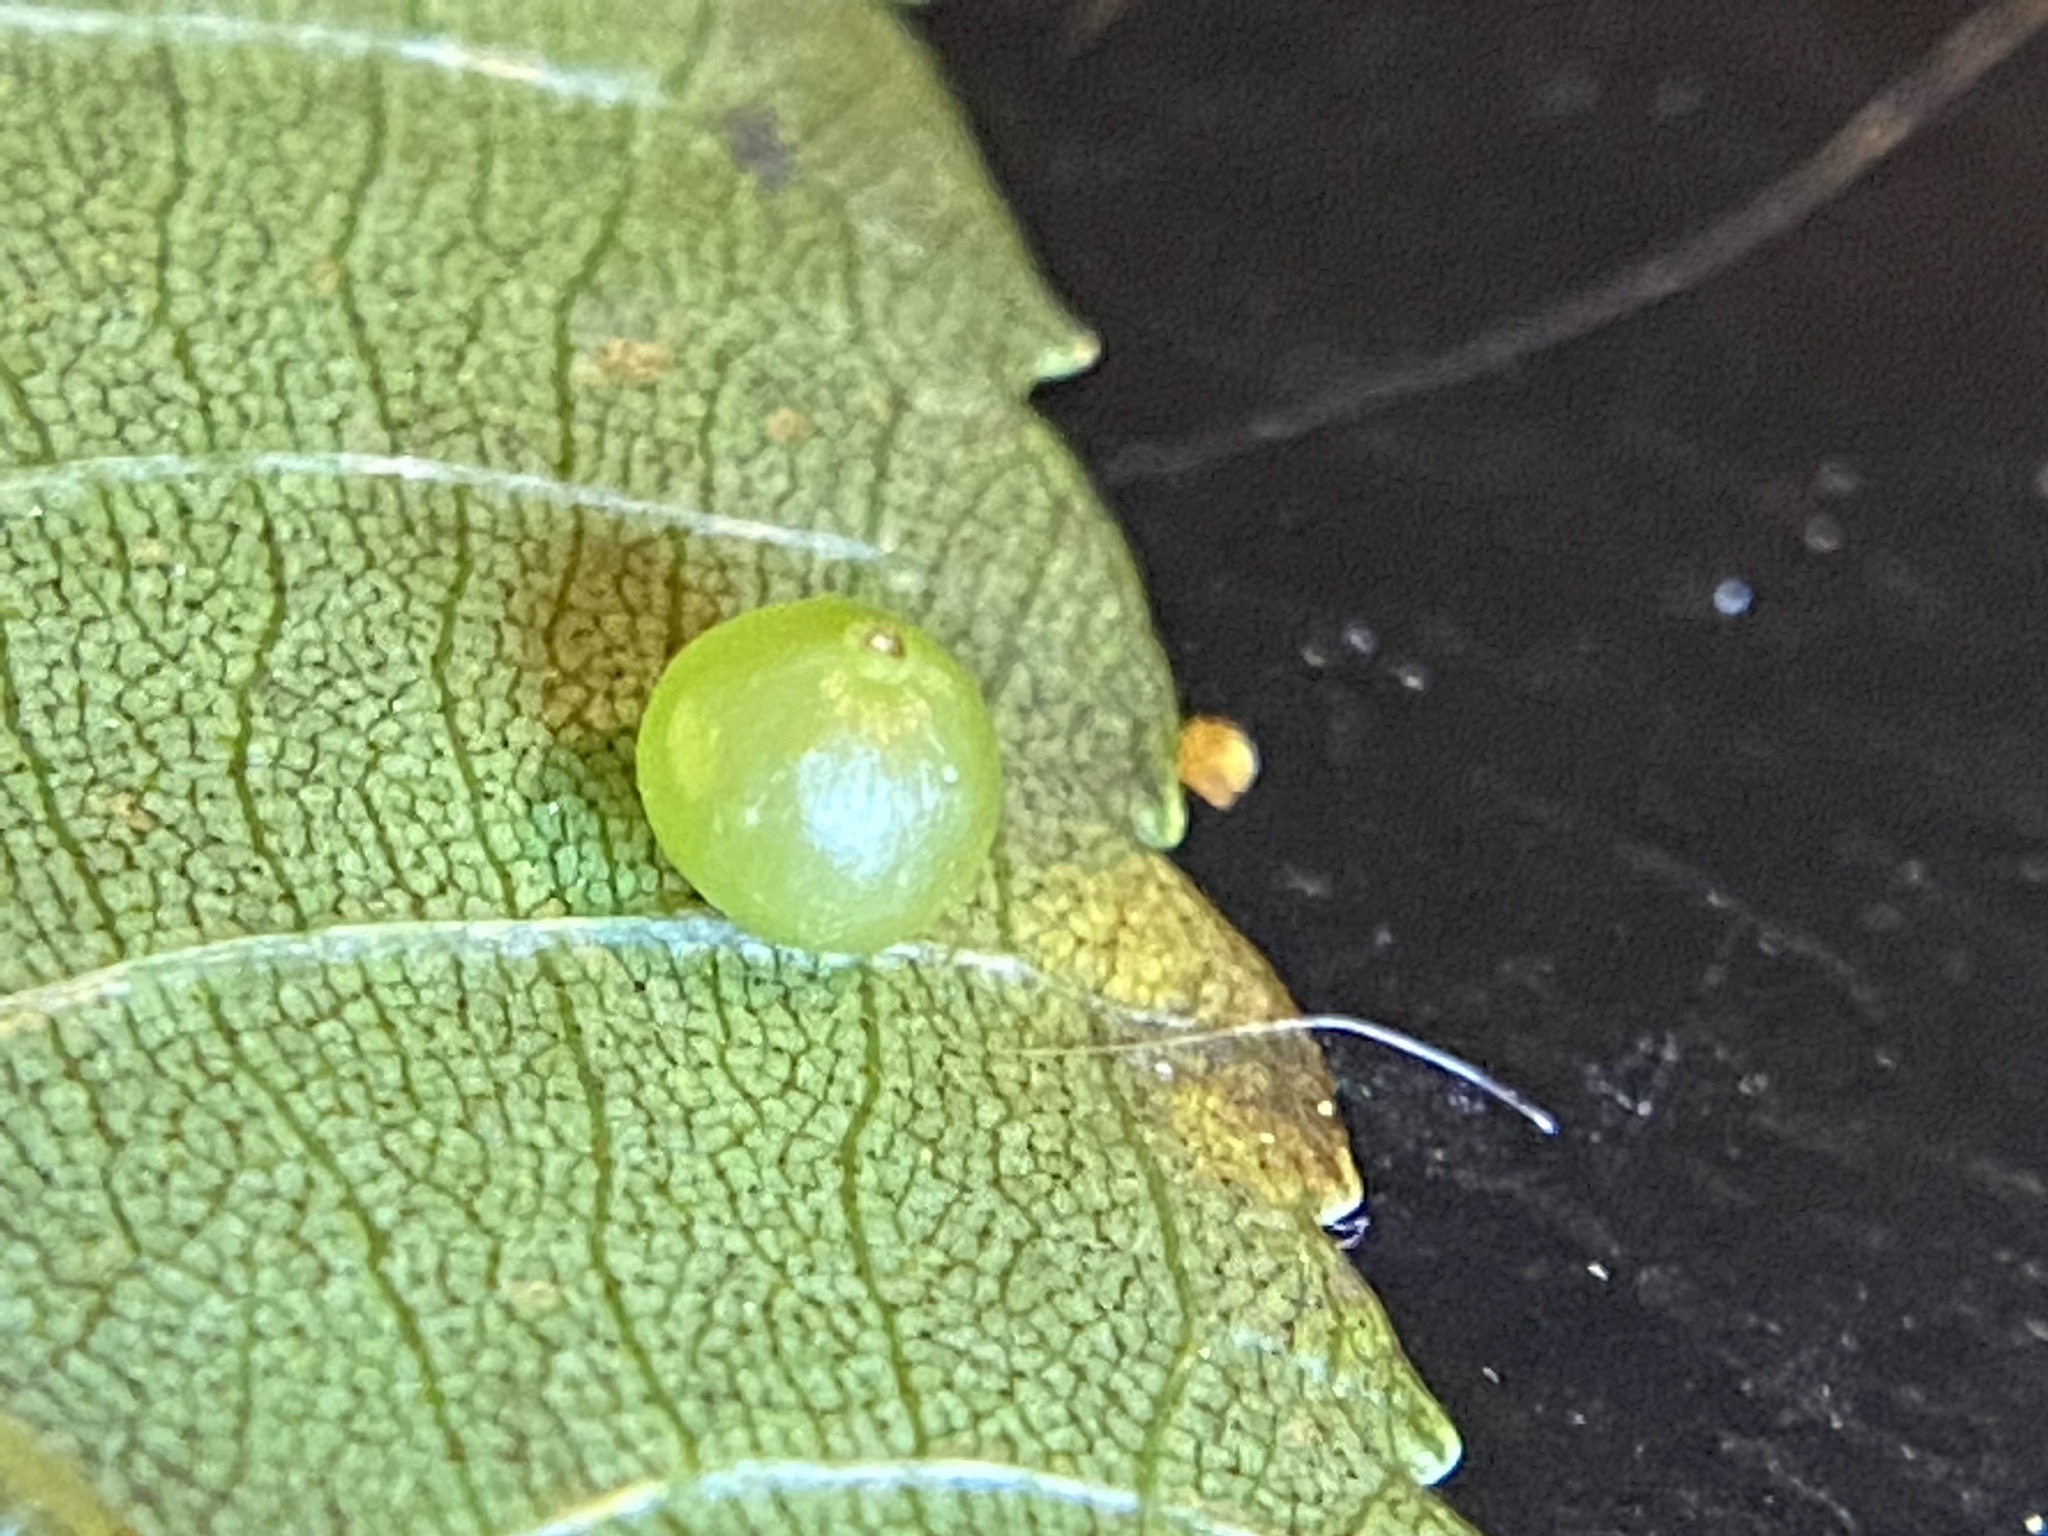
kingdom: Animalia
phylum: Arthropoda
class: Insecta
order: Diptera
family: Cecidomyiidae
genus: Caryomyia
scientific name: Caryomyia leviglobus
